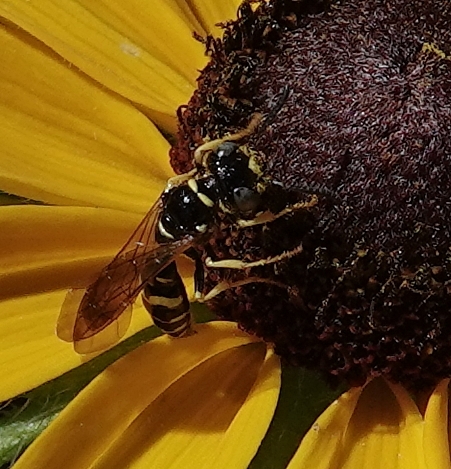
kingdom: Animalia
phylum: Arthropoda
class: Insecta
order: Hymenoptera
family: Crabronidae
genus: Philanthus
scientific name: Philanthus bilunatus
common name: Two moons beewolf
